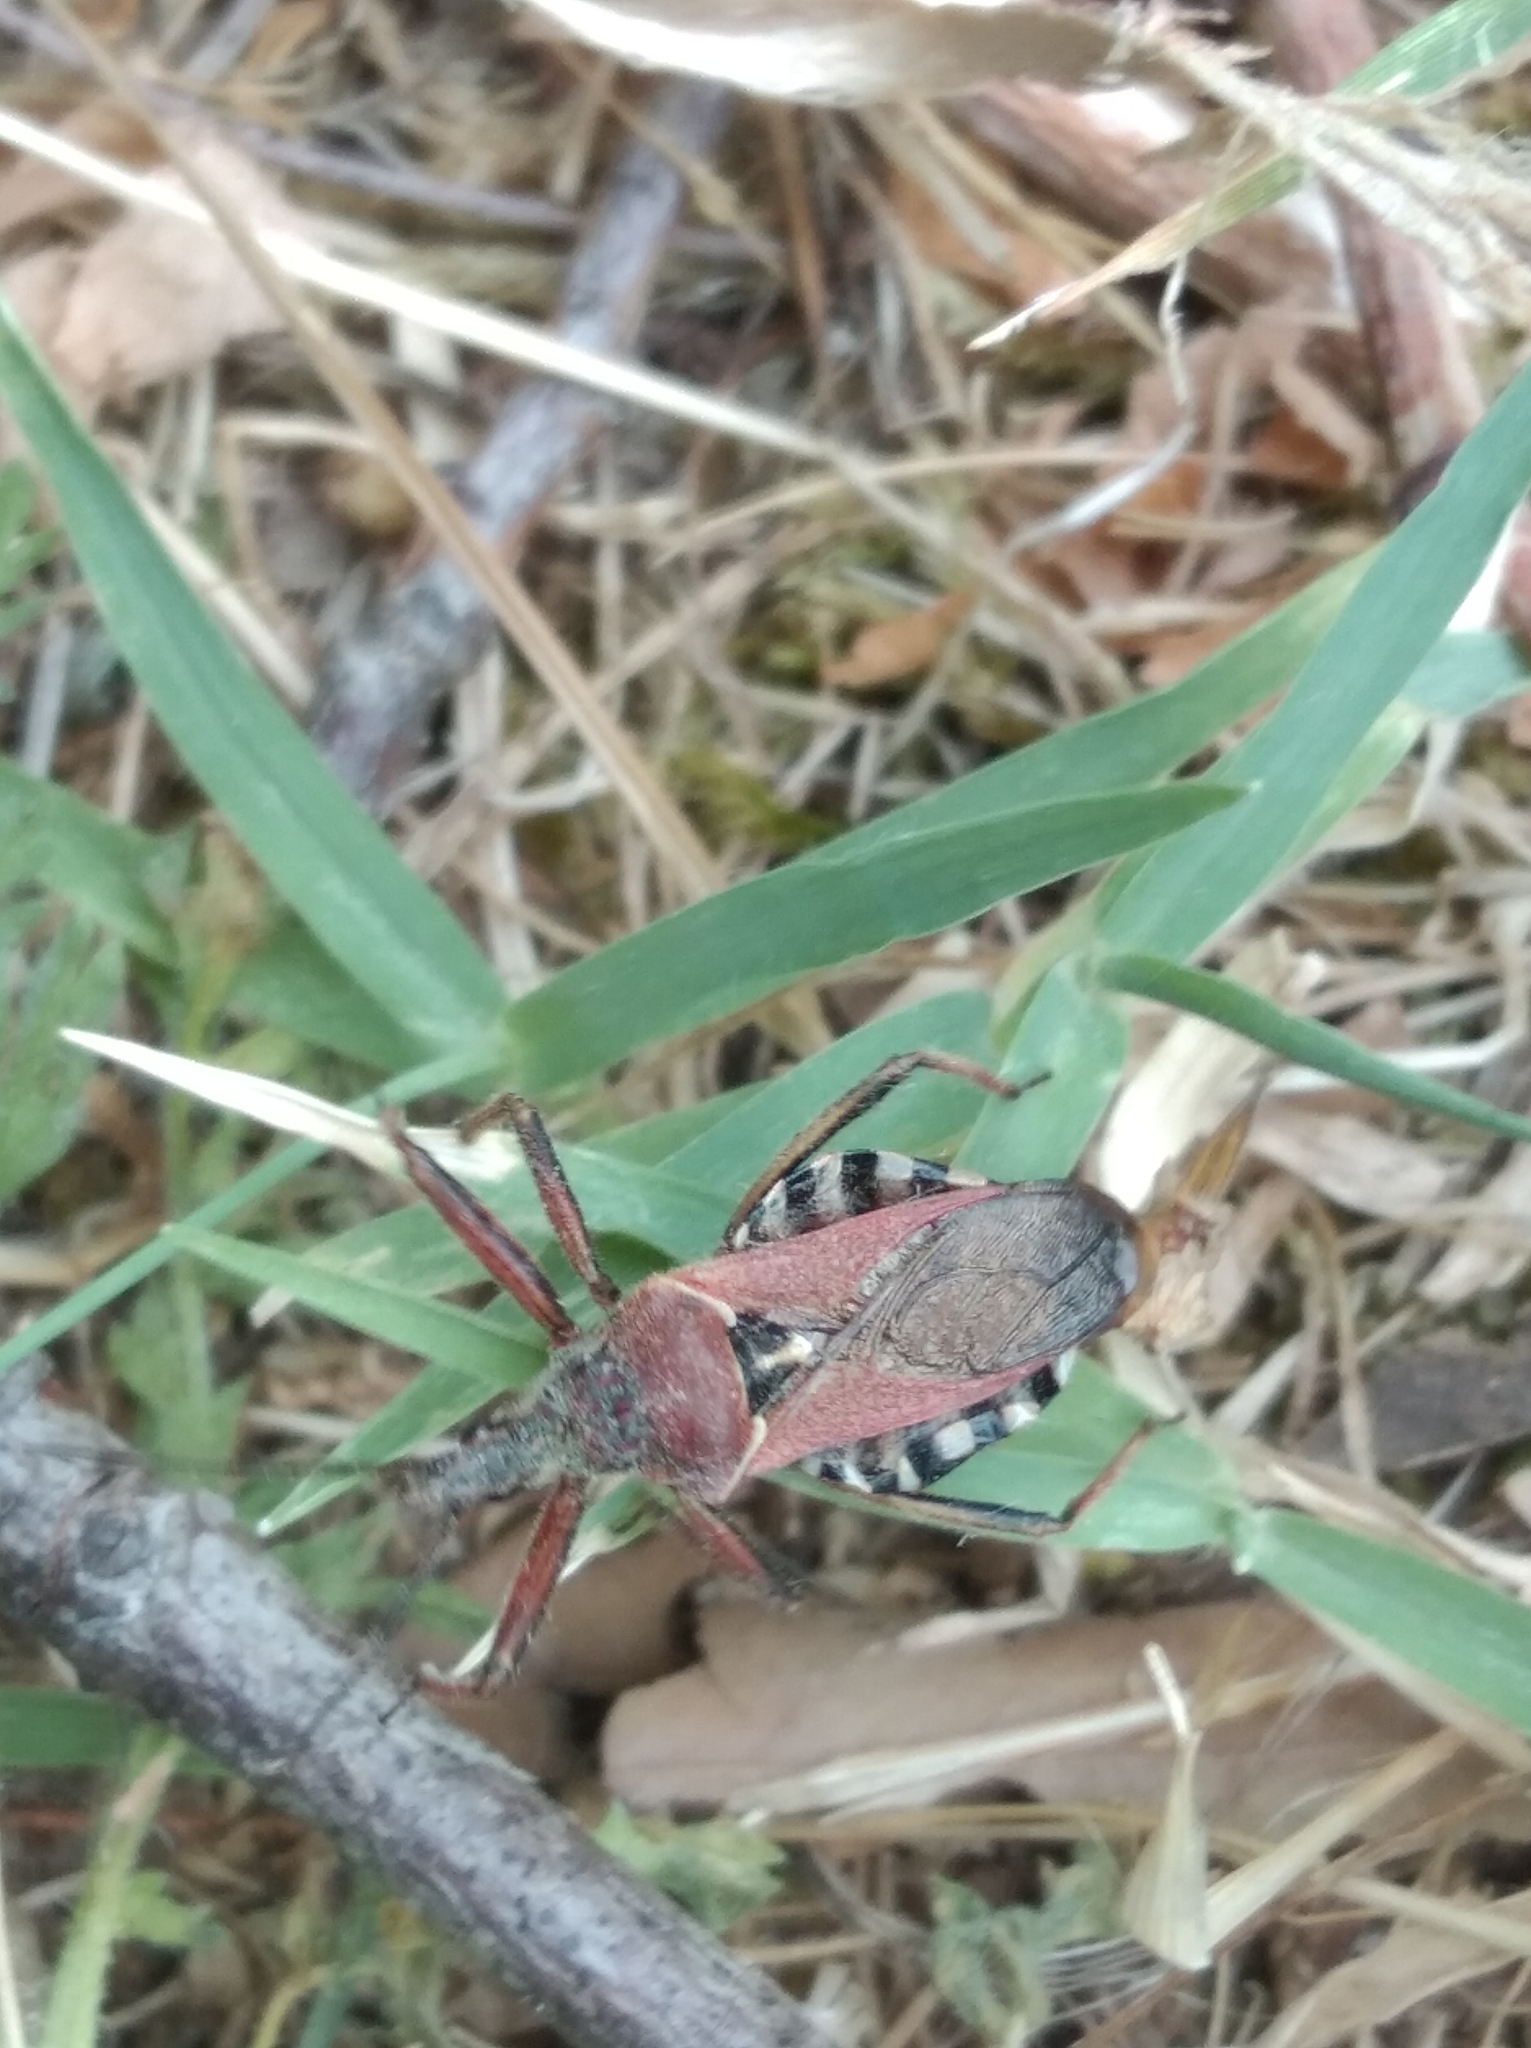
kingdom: Animalia
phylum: Arthropoda
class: Insecta
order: Hemiptera
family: Reduviidae
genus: Rhynocoris
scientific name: Rhynocoris erythropus
